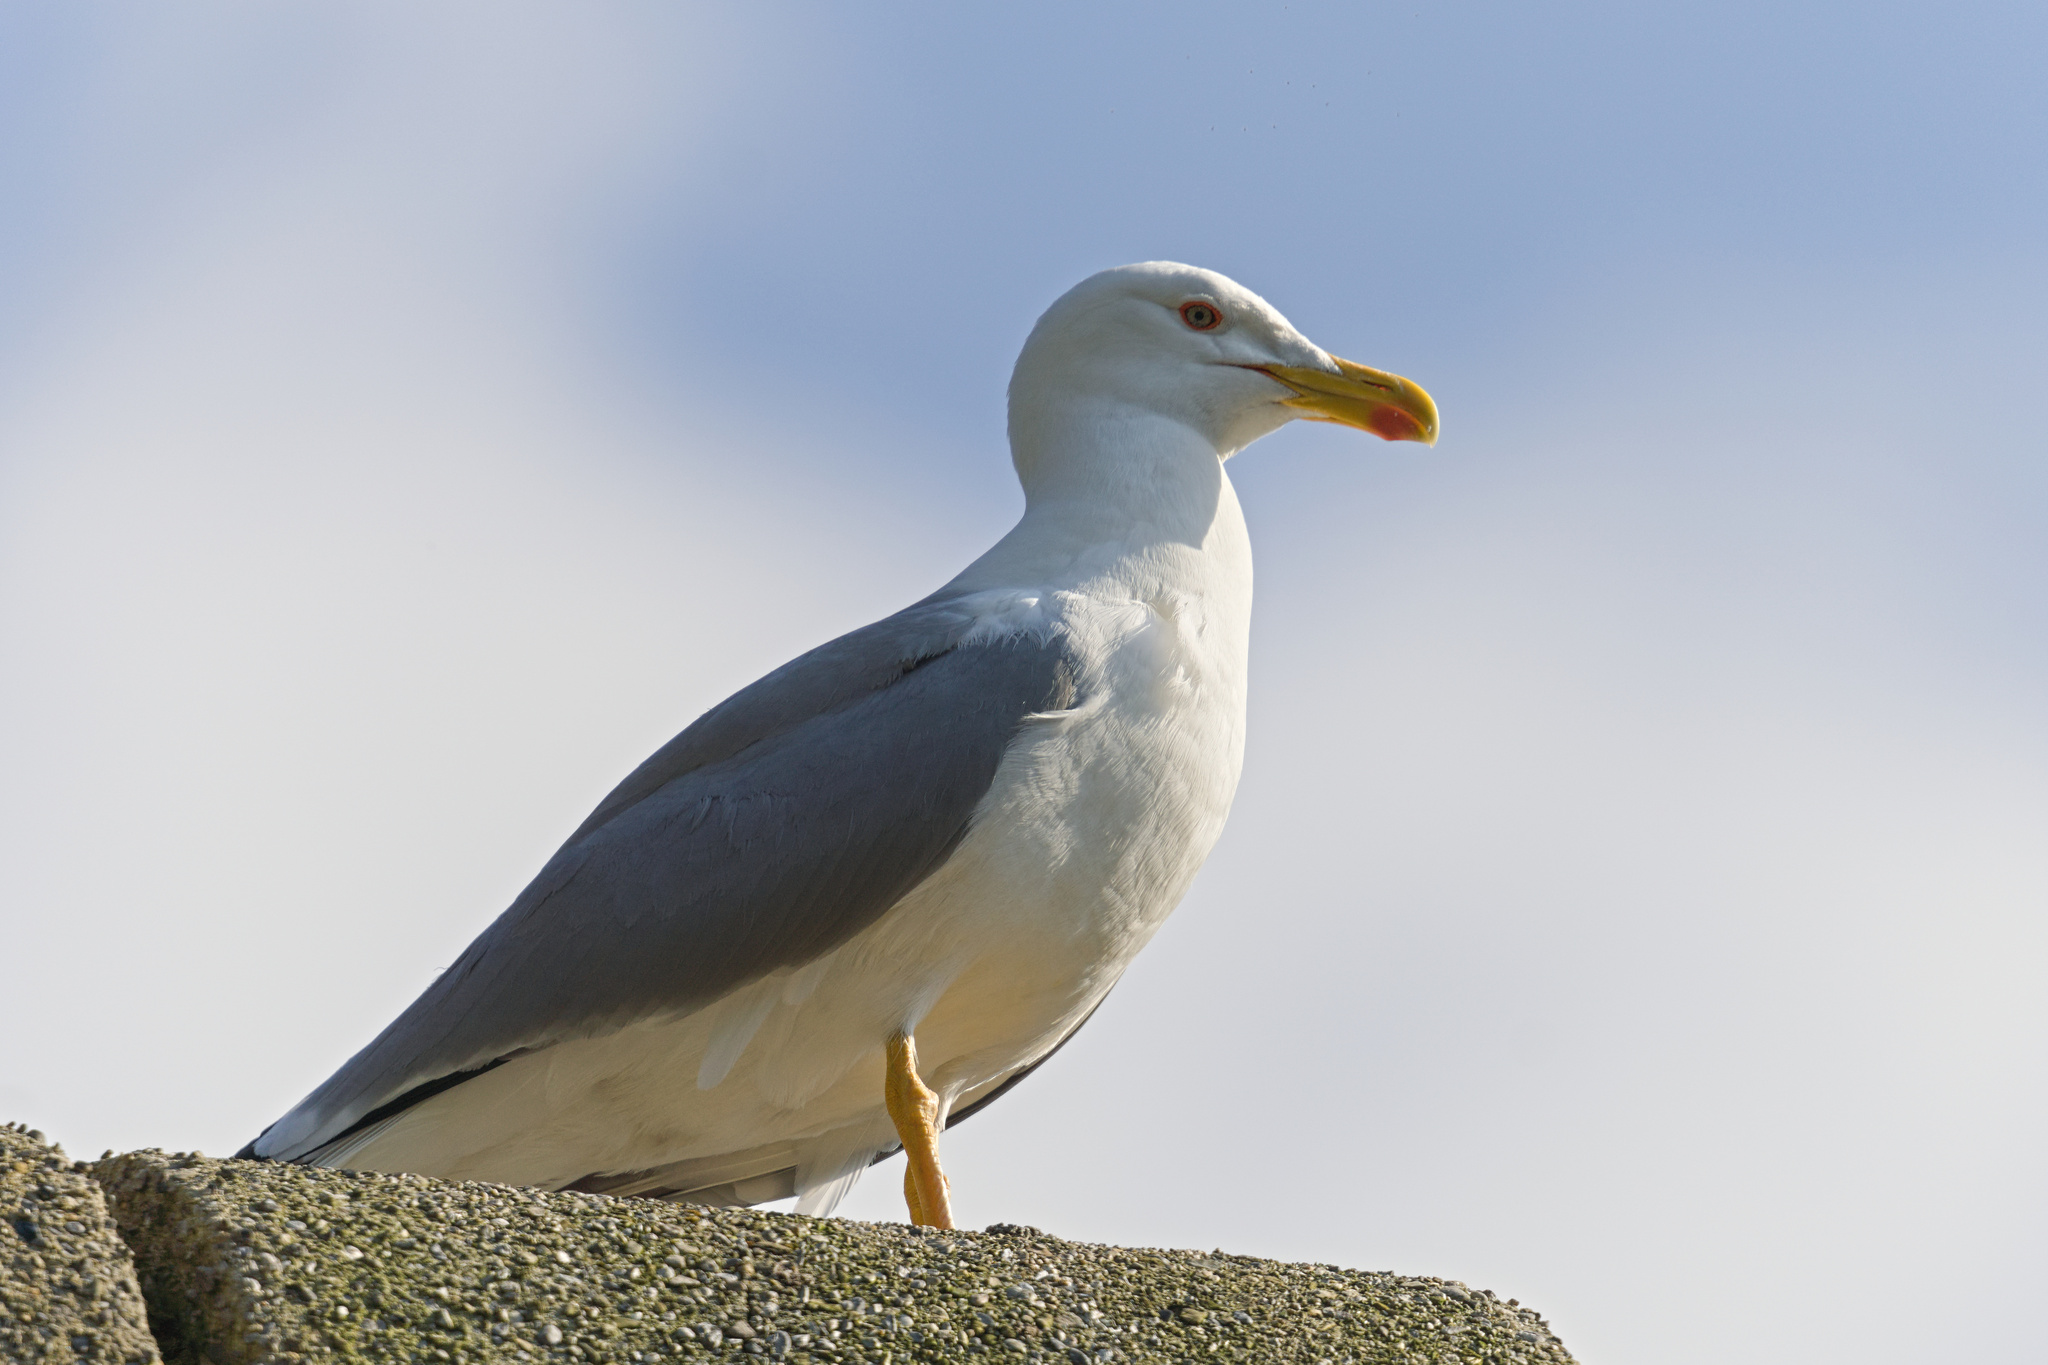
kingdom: Animalia
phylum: Chordata
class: Aves
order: Charadriiformes
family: Laridae
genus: Larus
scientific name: Larus michahellis
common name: Yellow-legged gull
